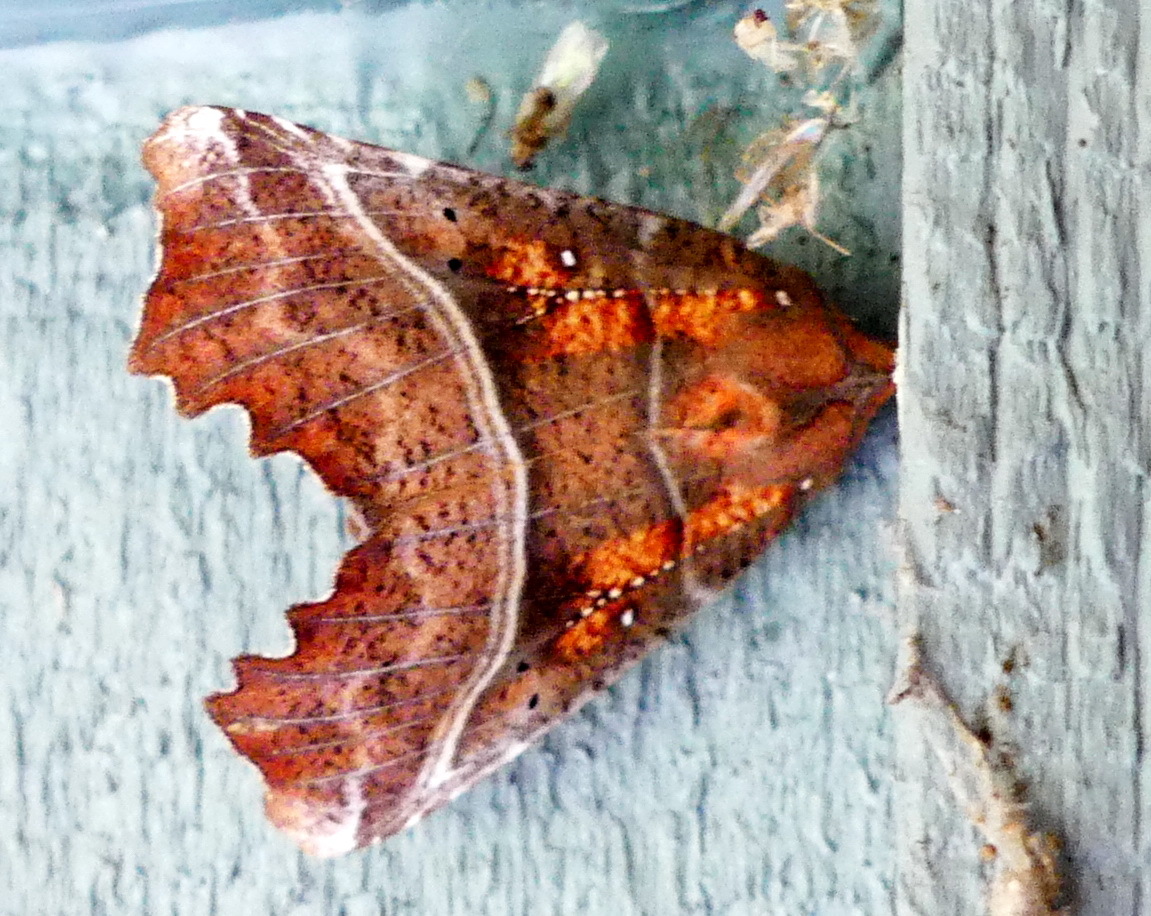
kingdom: Animalia
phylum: Arthropoda
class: Insecta
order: Lepidoptera
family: Erebidae
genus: Scoliopteryx
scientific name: Scoliopteryx libatrix
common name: Herald
